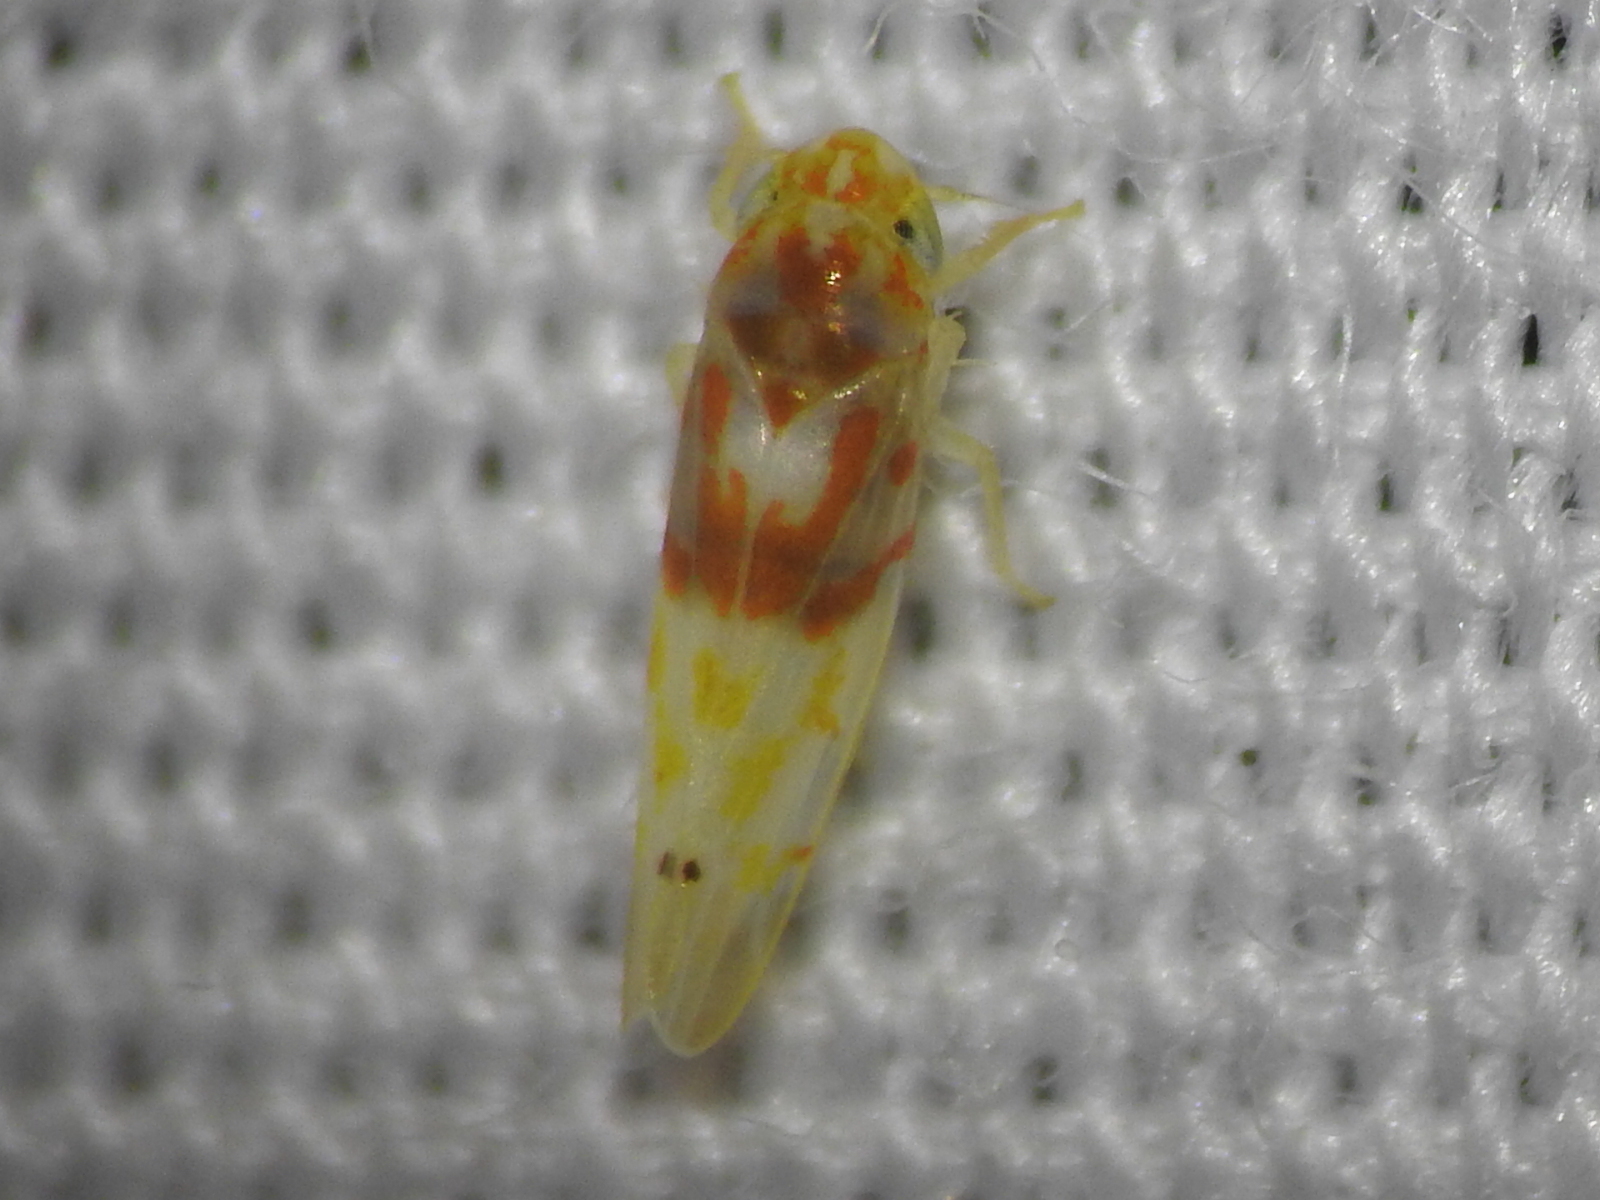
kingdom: Animalia
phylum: Arthropoda
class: Insecta
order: Hemiptera
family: Cicadellidae
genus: Eratoneura
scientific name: Eratoneura affinis
